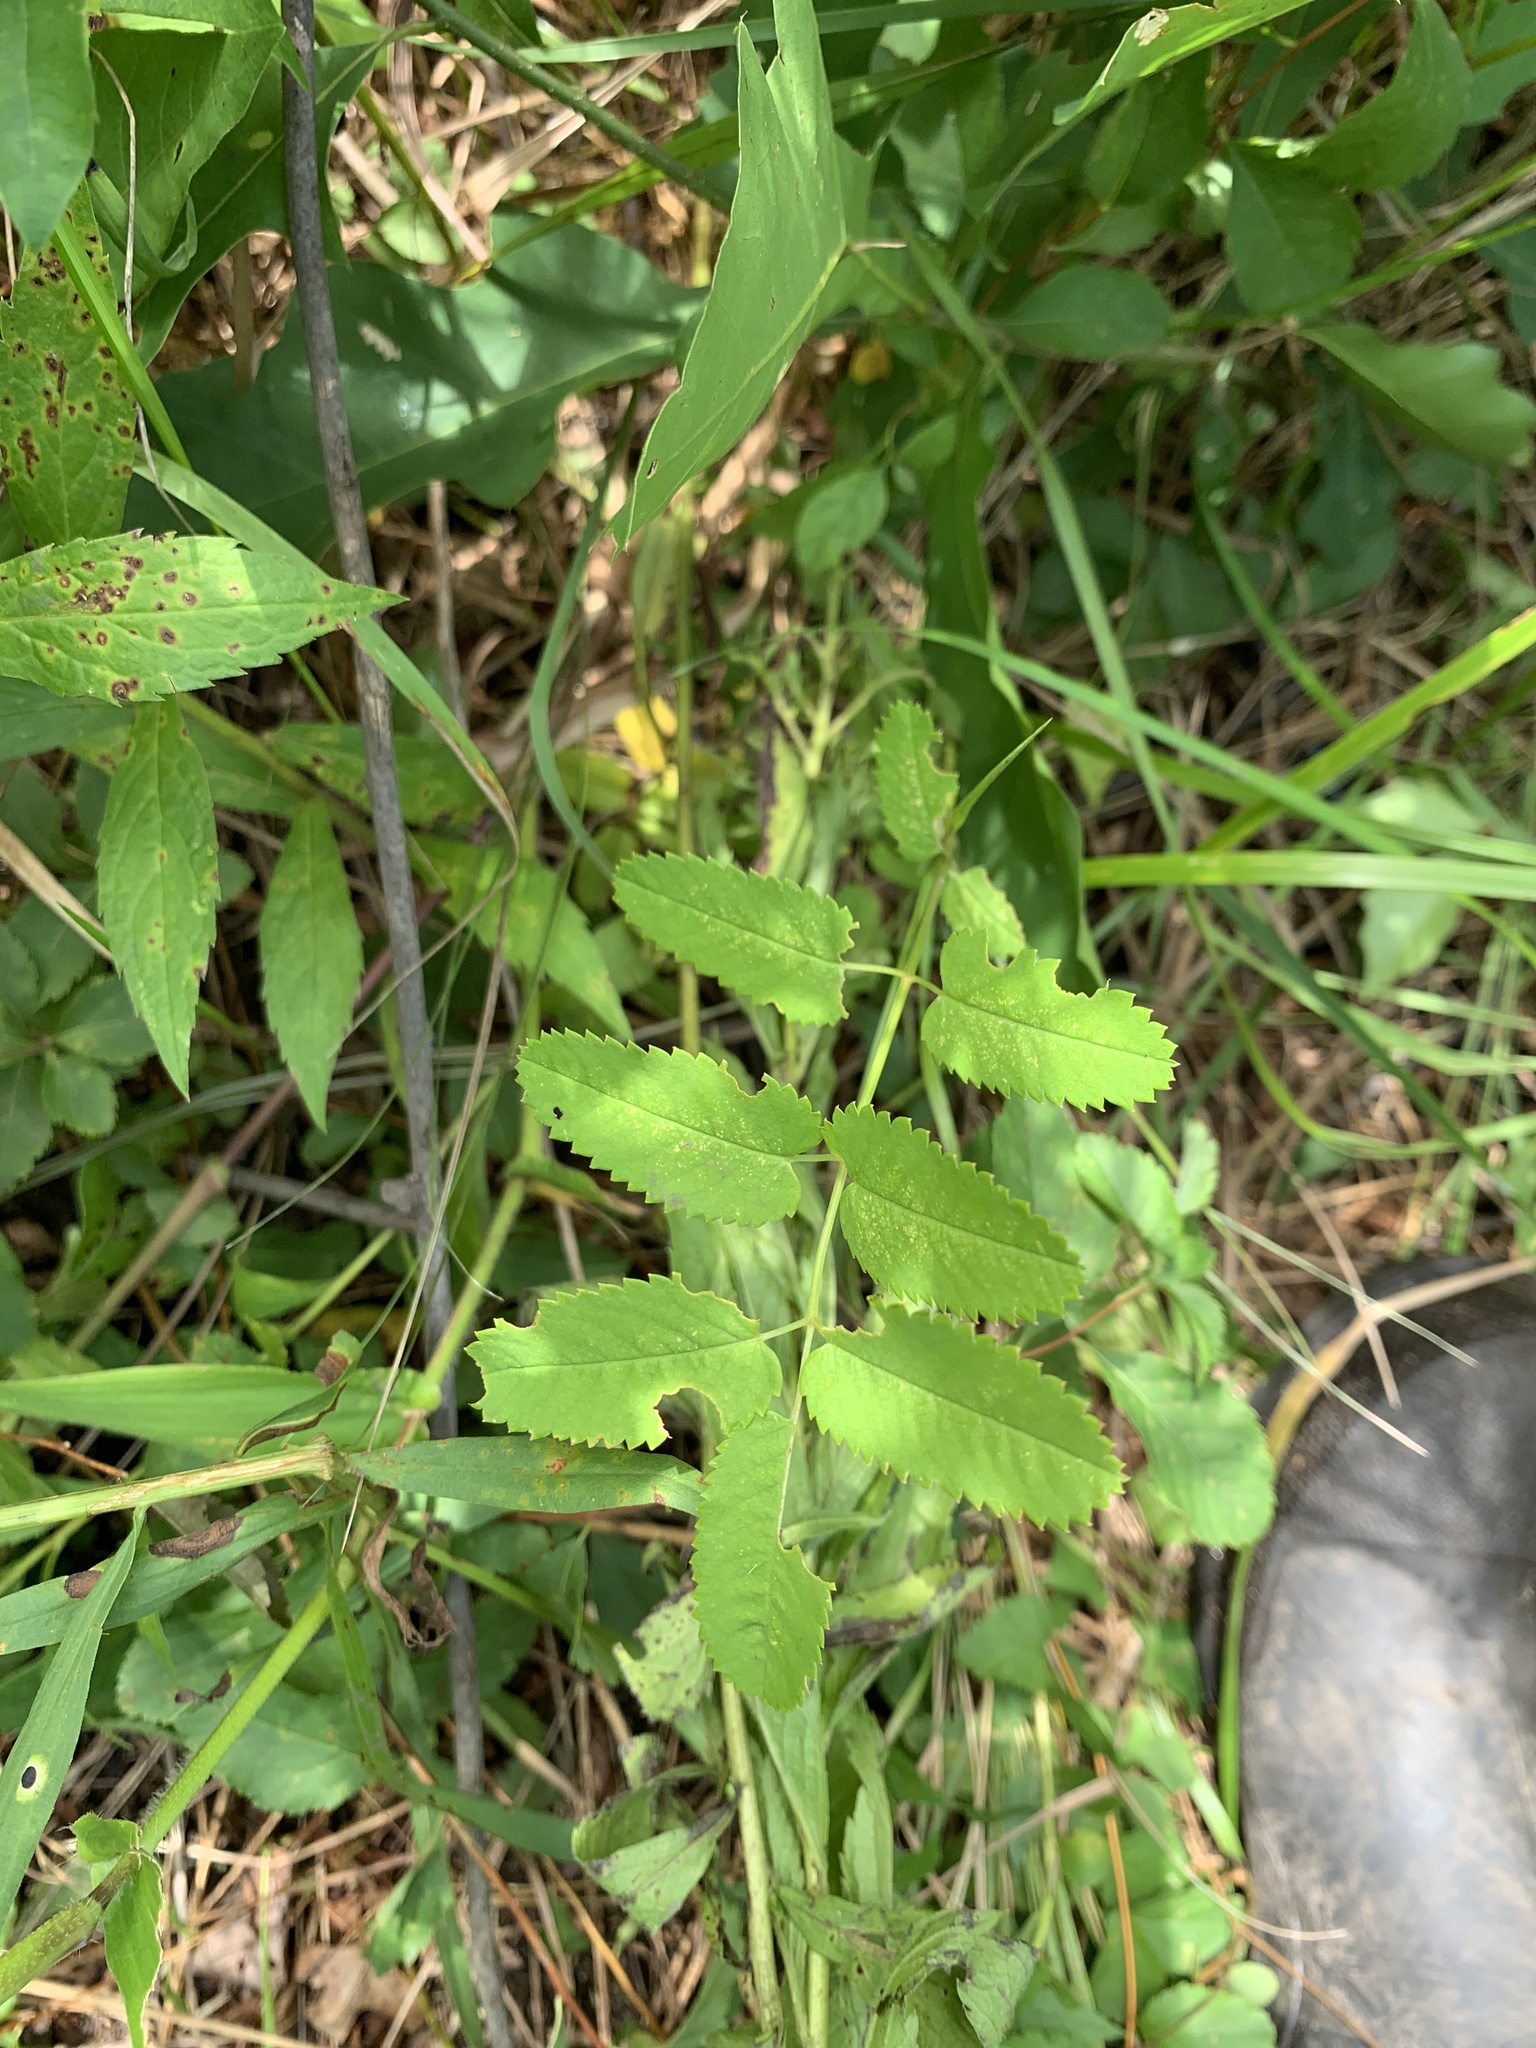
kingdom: Plantae
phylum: Tracheophyta
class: Magnoliopsida
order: Rosales
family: Rosaceae
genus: Sanguisorba
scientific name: Sanguisorba canadensis
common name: White burnet
